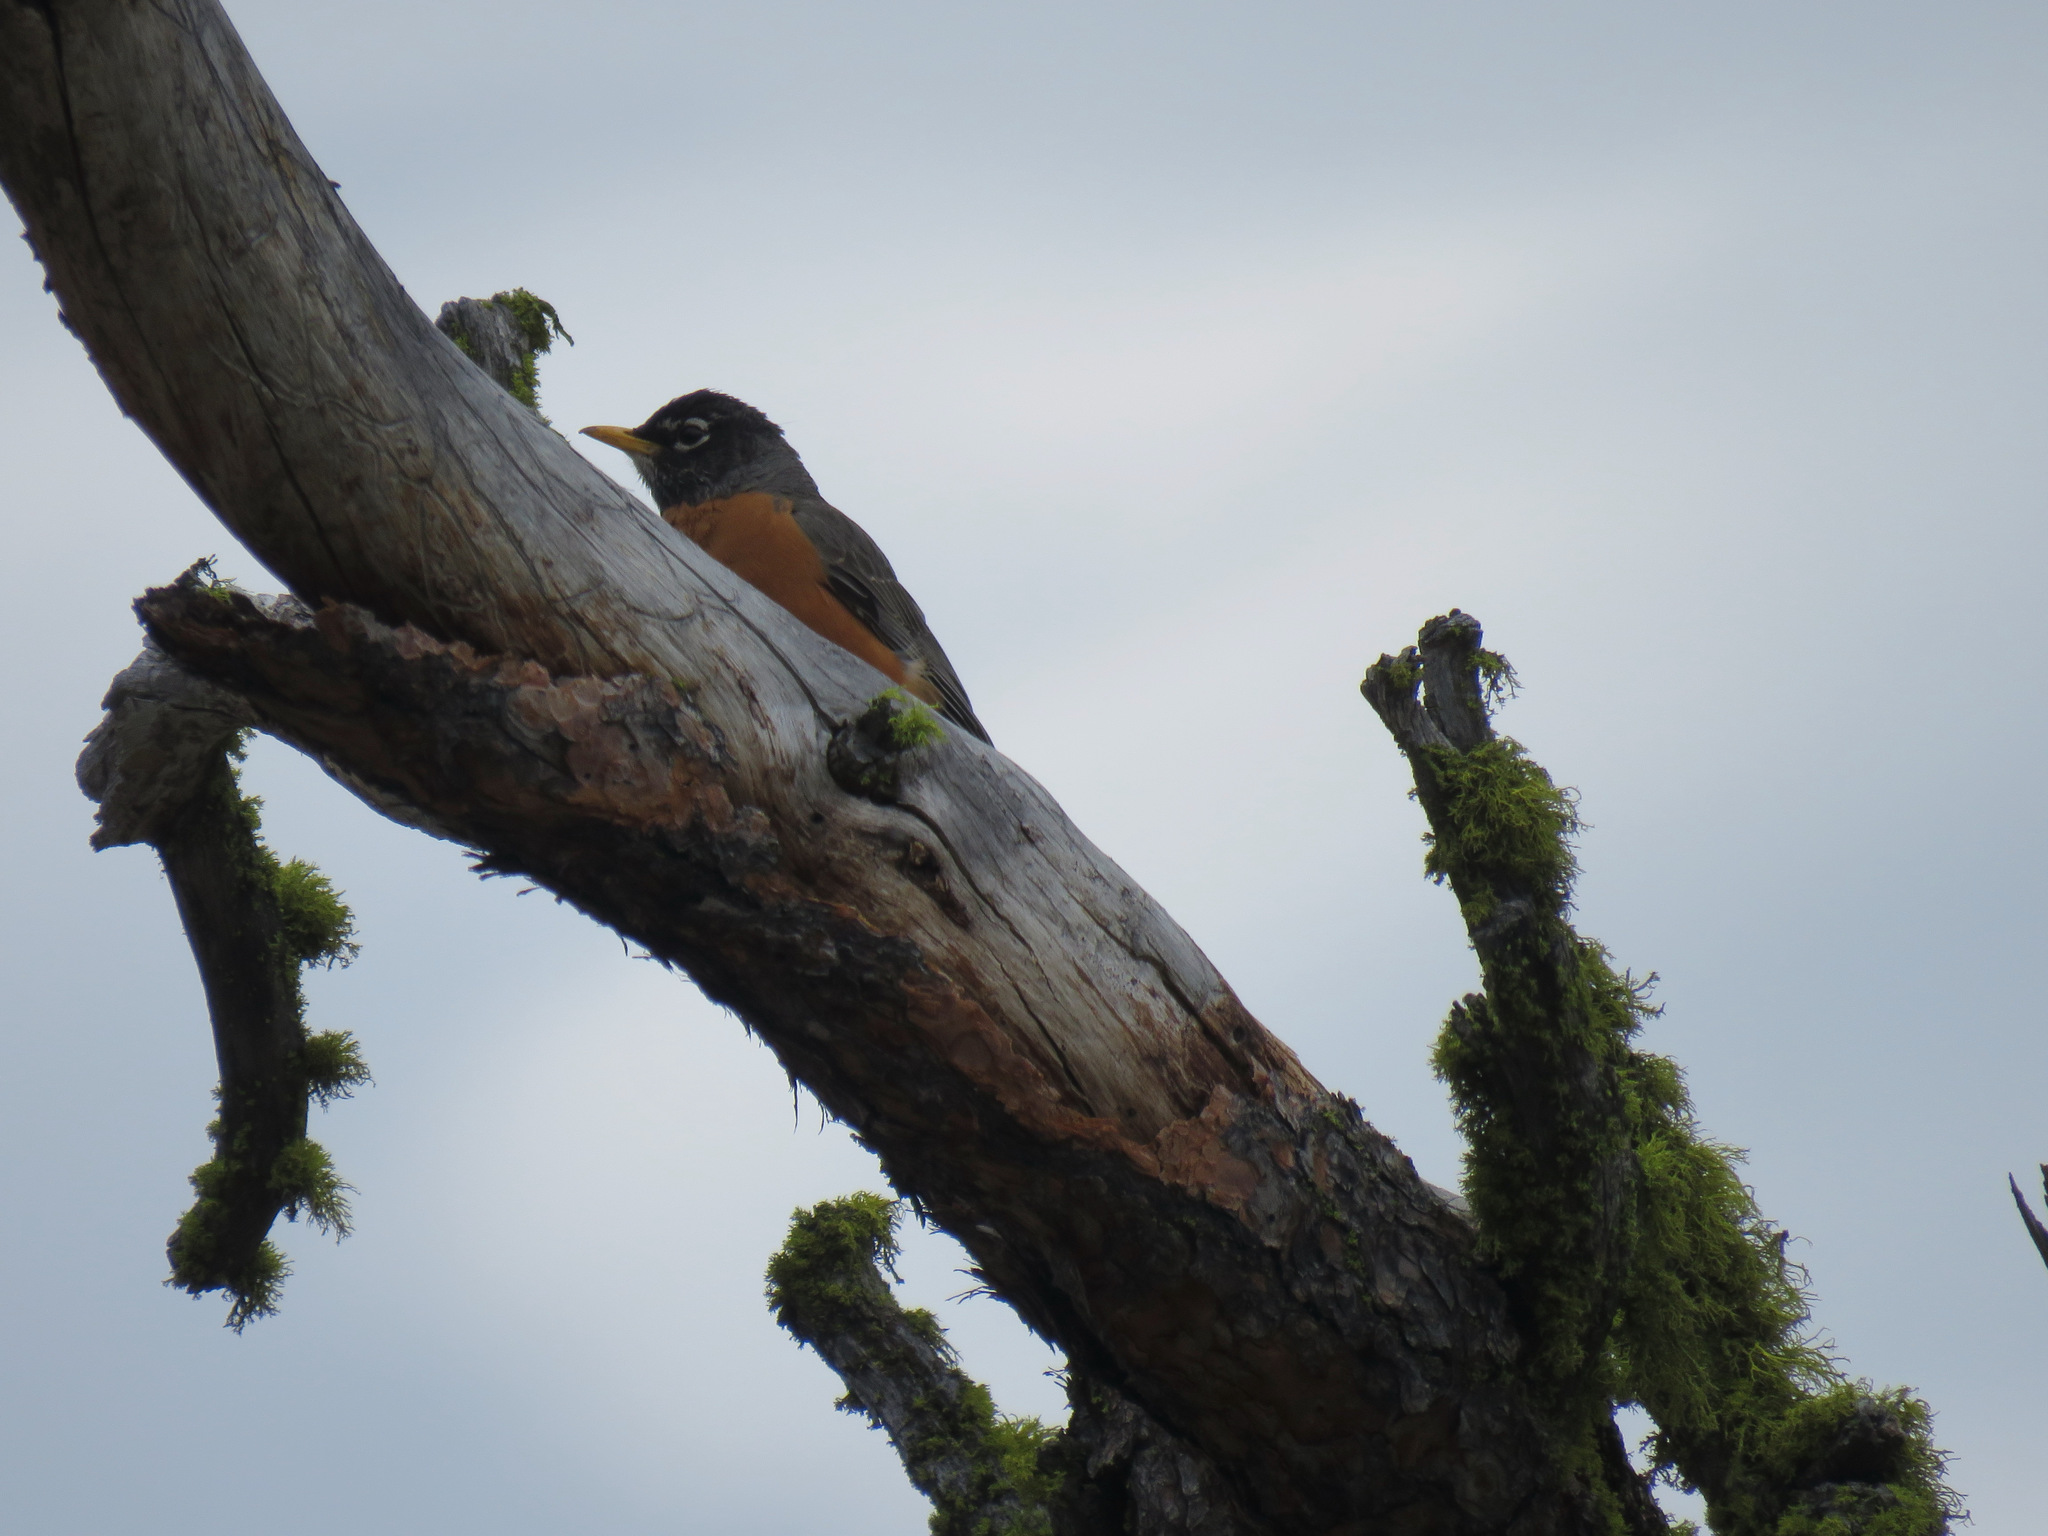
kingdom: Animalia
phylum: Chordata
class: Aves
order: Passeriformes
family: Turdidae
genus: Turdus
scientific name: Turdus migratorius
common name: American robin
